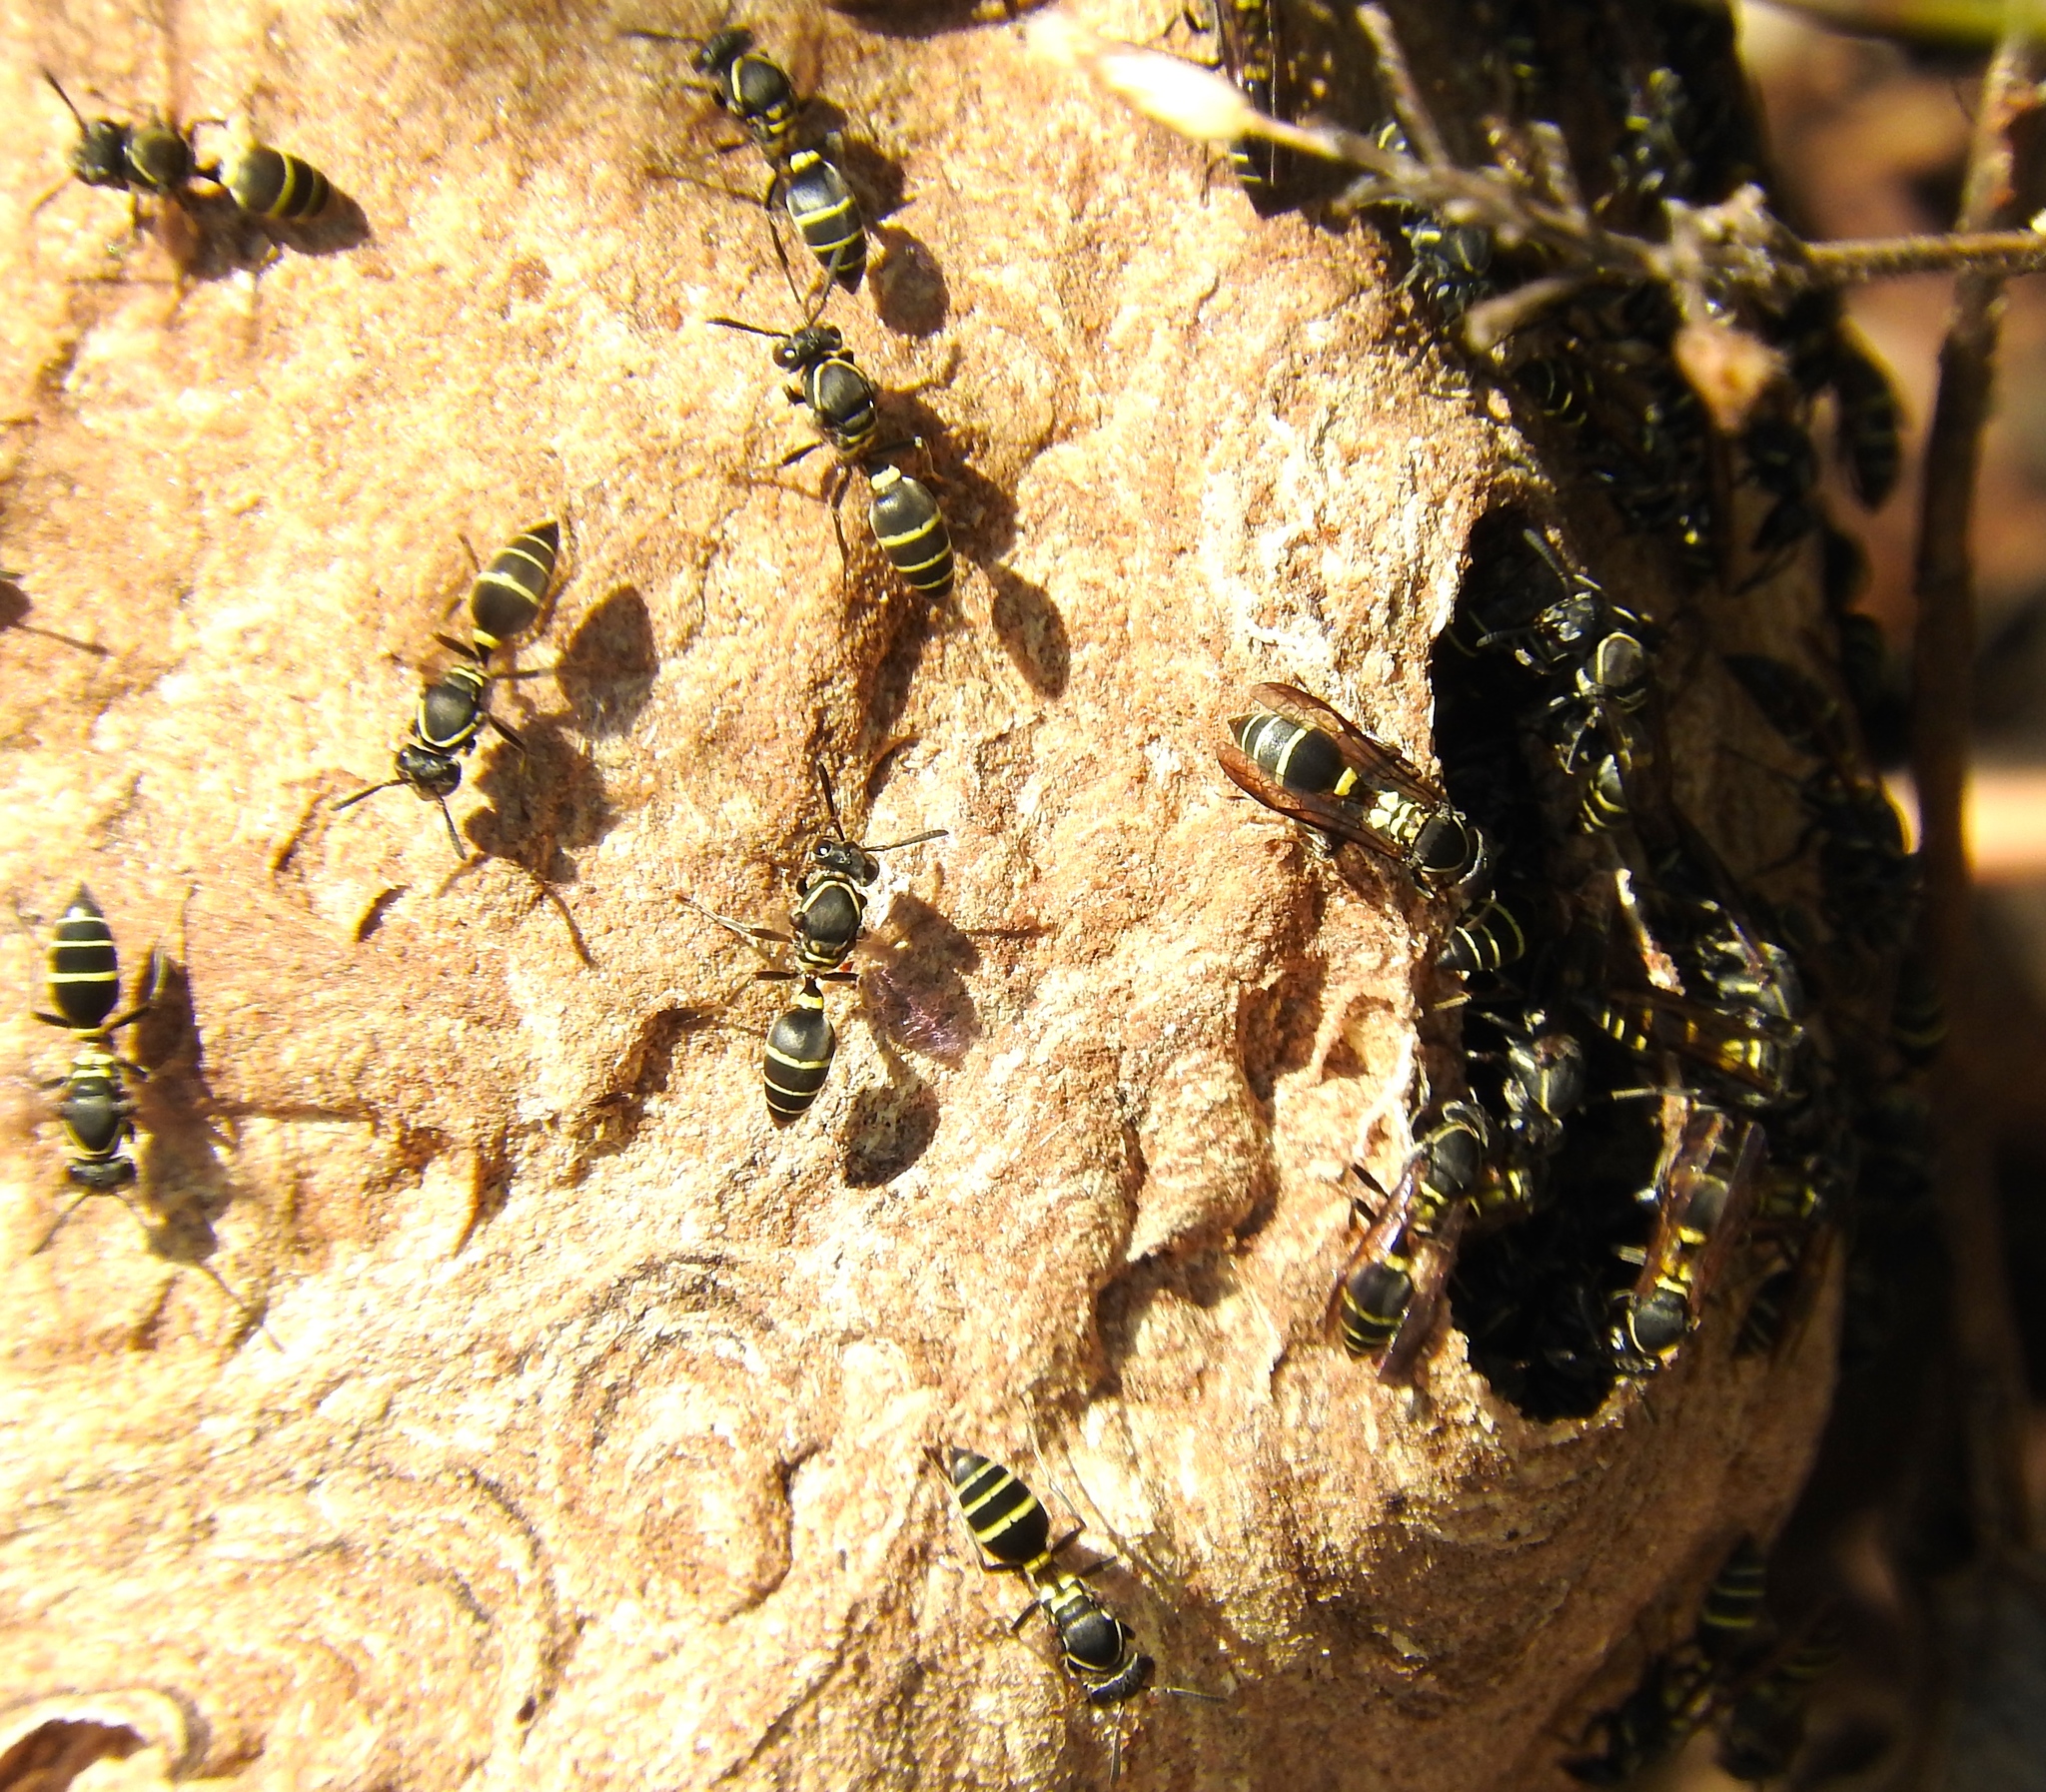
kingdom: Animalia
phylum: Arthropoda
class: Insecta
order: Hymenoptera
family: Vespidae
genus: Myrapetra
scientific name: Myrapetra
